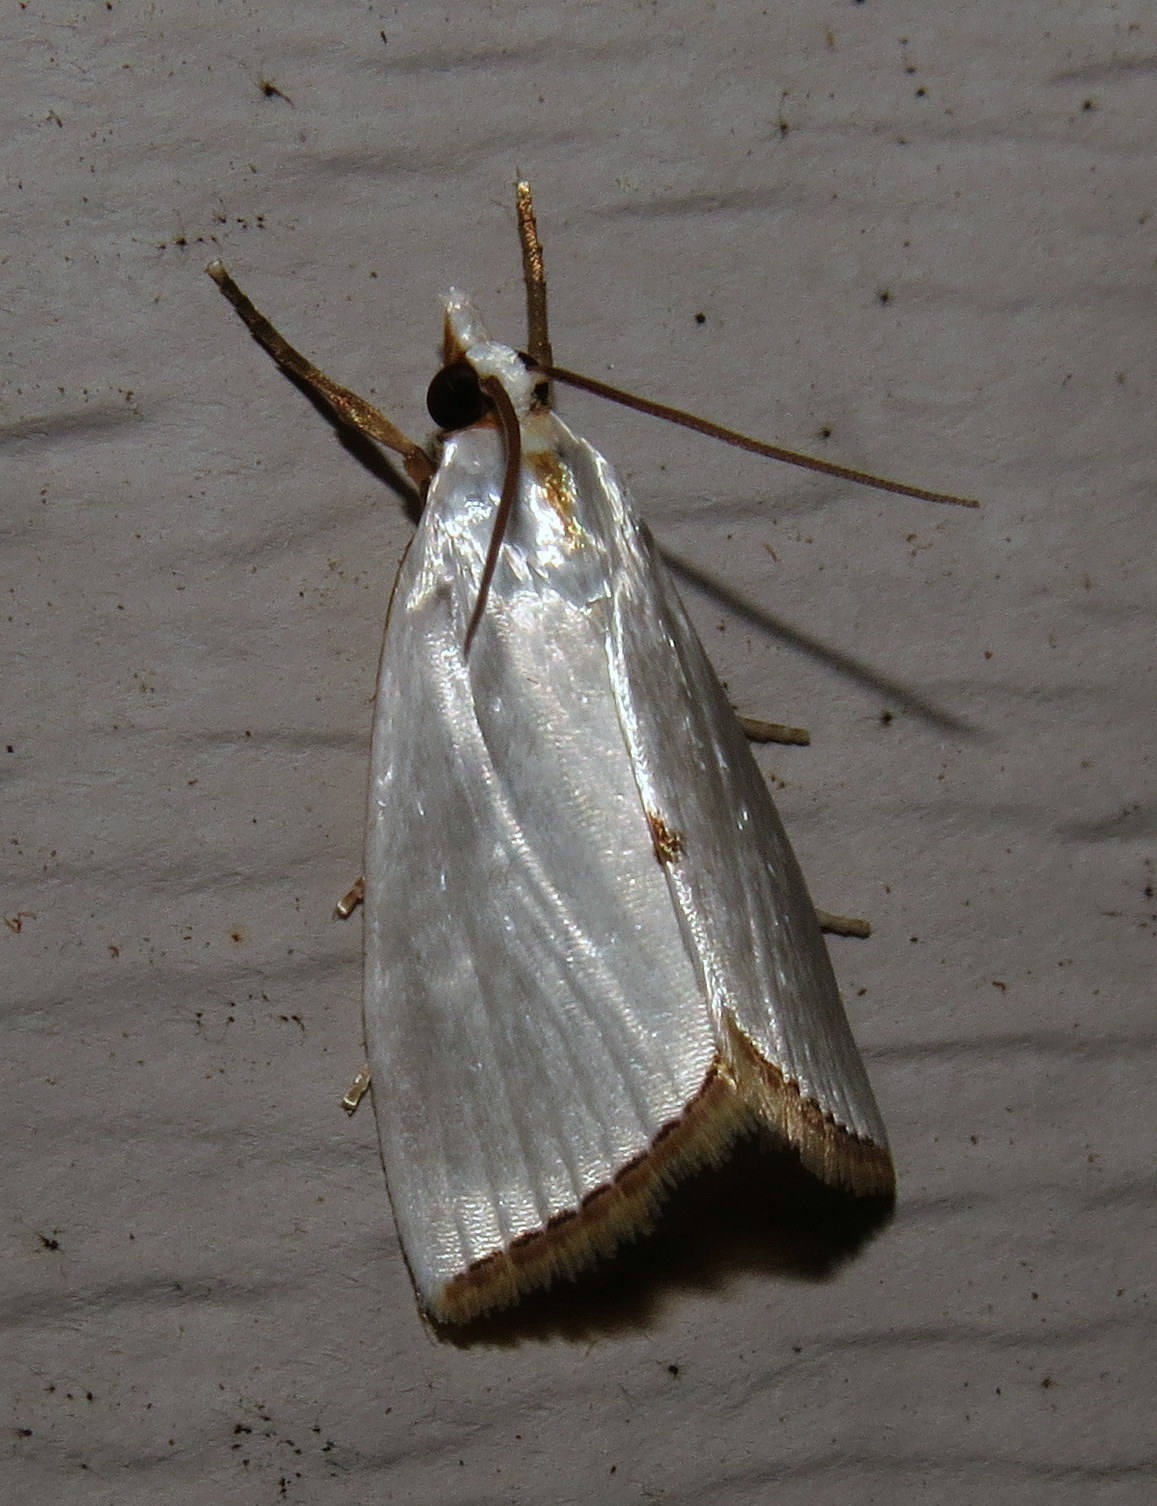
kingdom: Animalia
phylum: Arthropoda
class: Insecta
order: Lepidoptera
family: Crambidae
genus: Argyria
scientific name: Argyria nivalis
